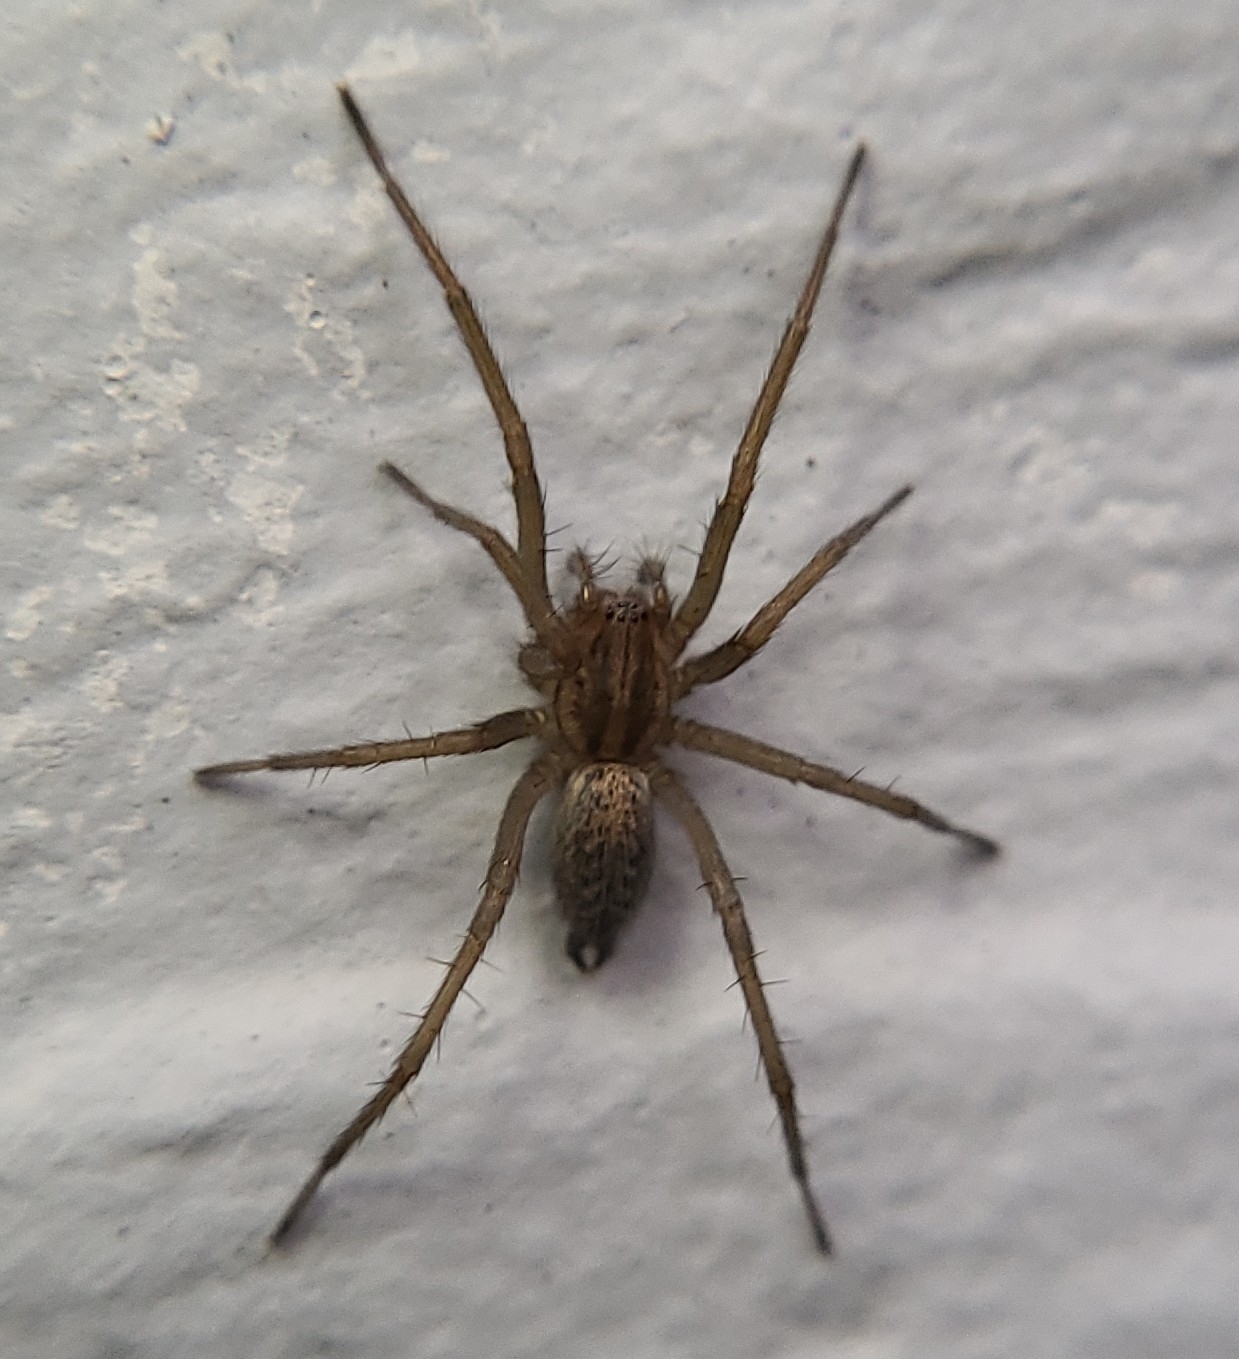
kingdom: Animalia
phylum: Arthropoda
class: Arachnida
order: Araneae
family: Agelenidae
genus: Eratigena
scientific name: Eratigena agrestis
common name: Hobo spider
